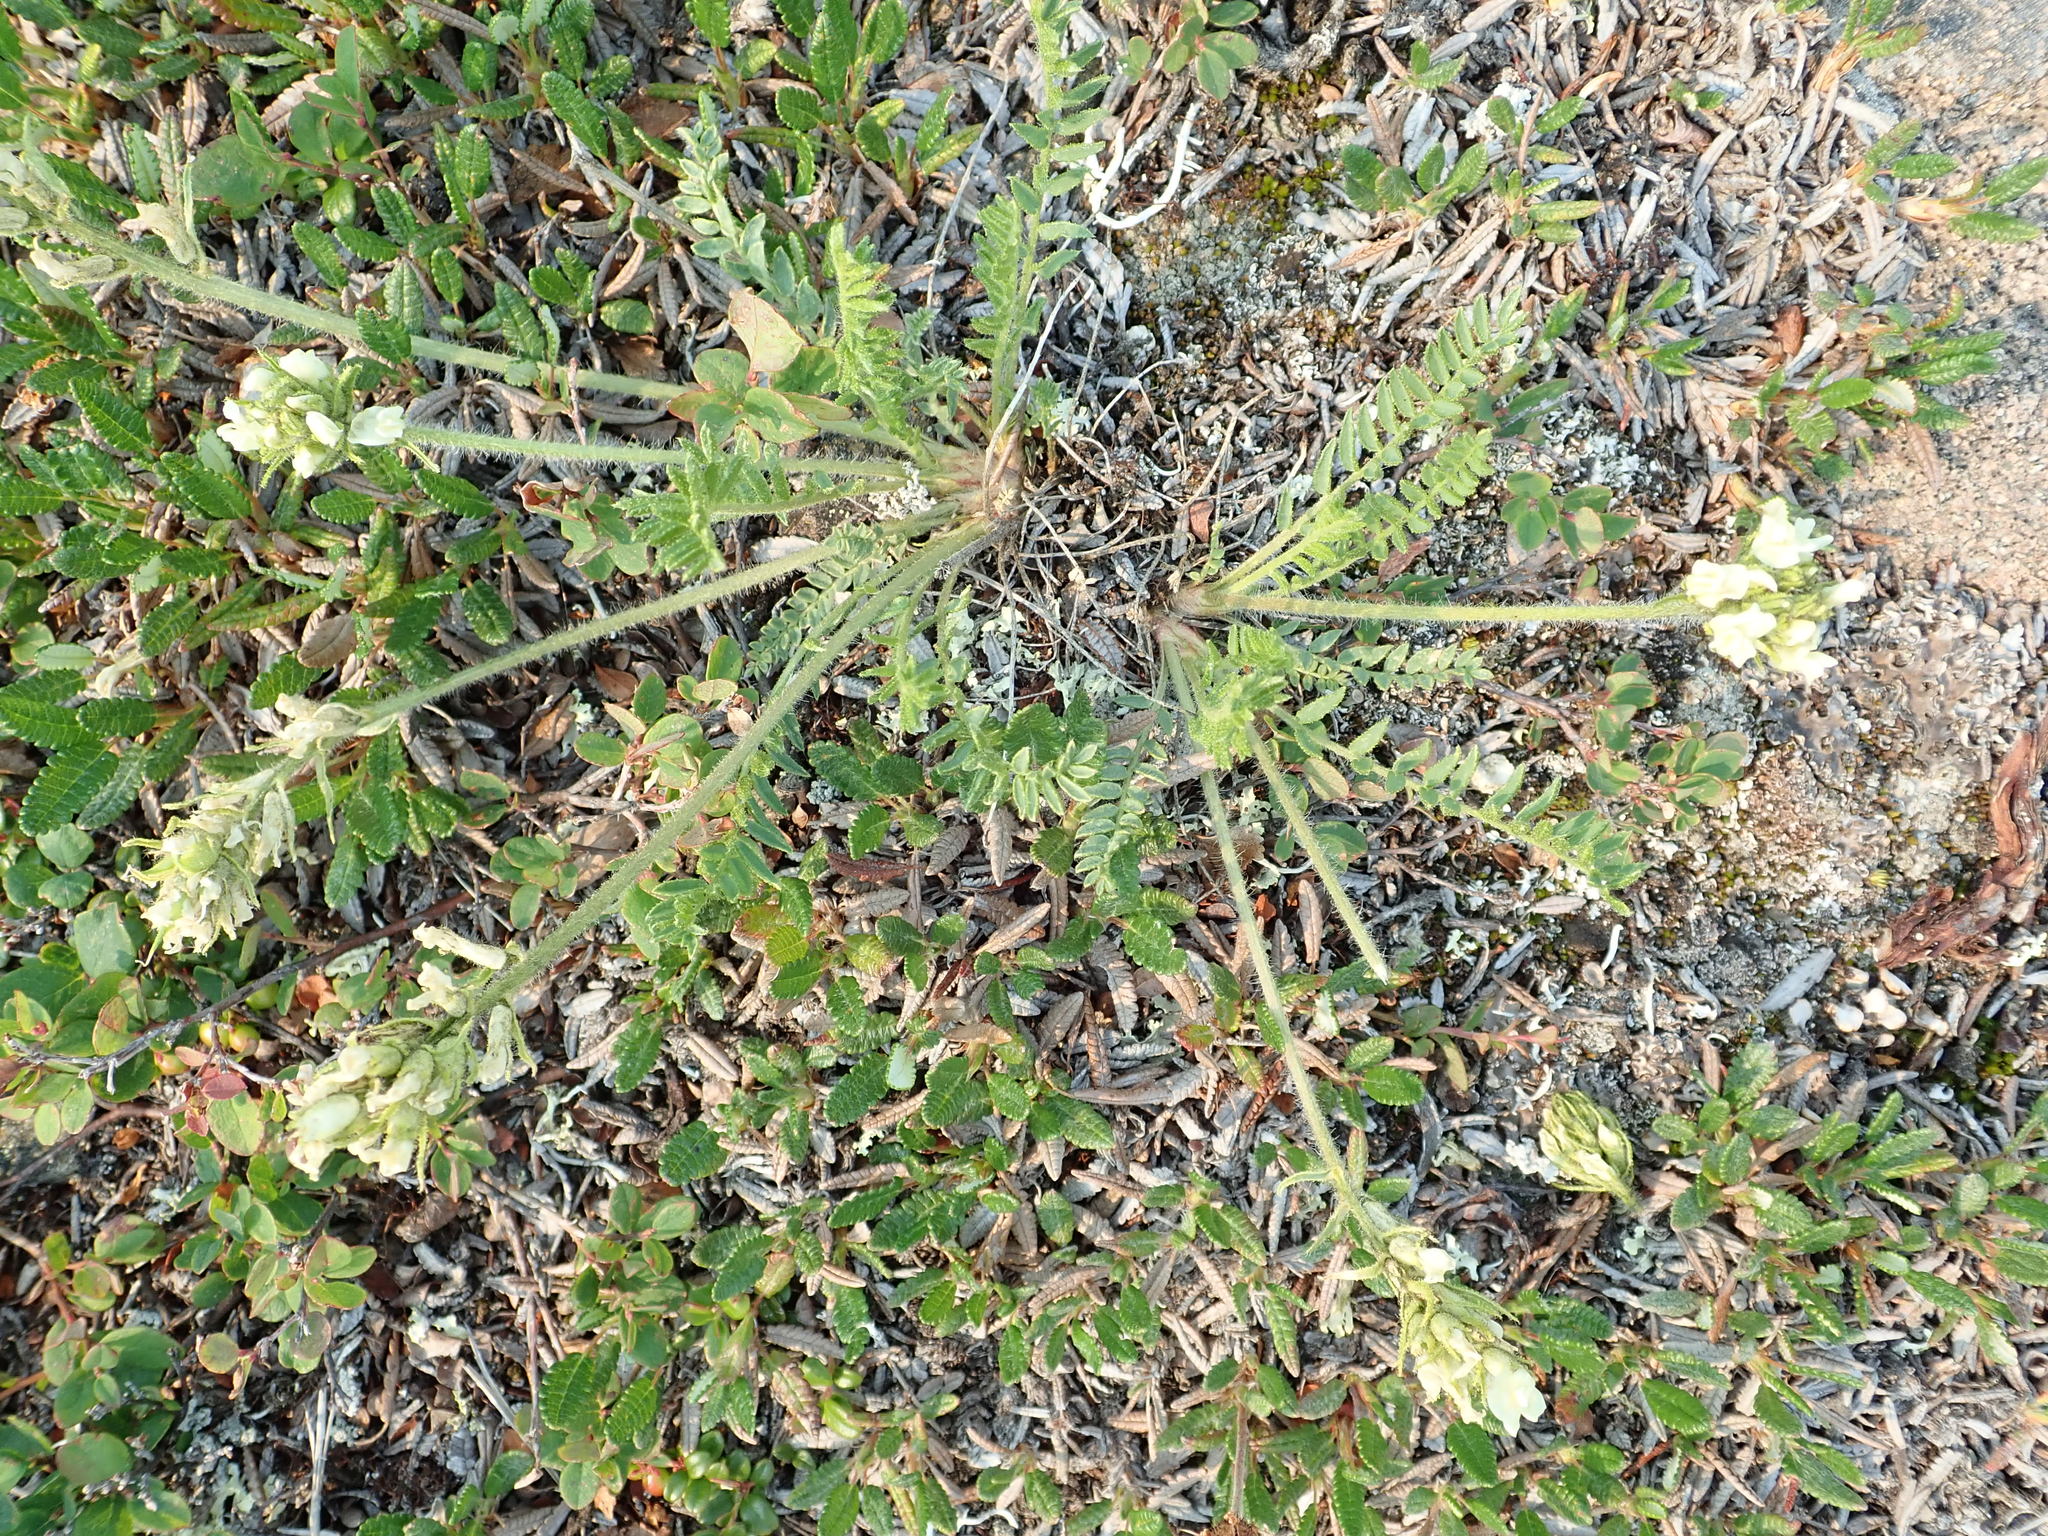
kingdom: Plantae
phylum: Tracheophyta
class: Magnoliopsida
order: Fabales
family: Fabaceae
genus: Oxytropis
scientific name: Oxytropis borealis
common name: Boreal locoweed
